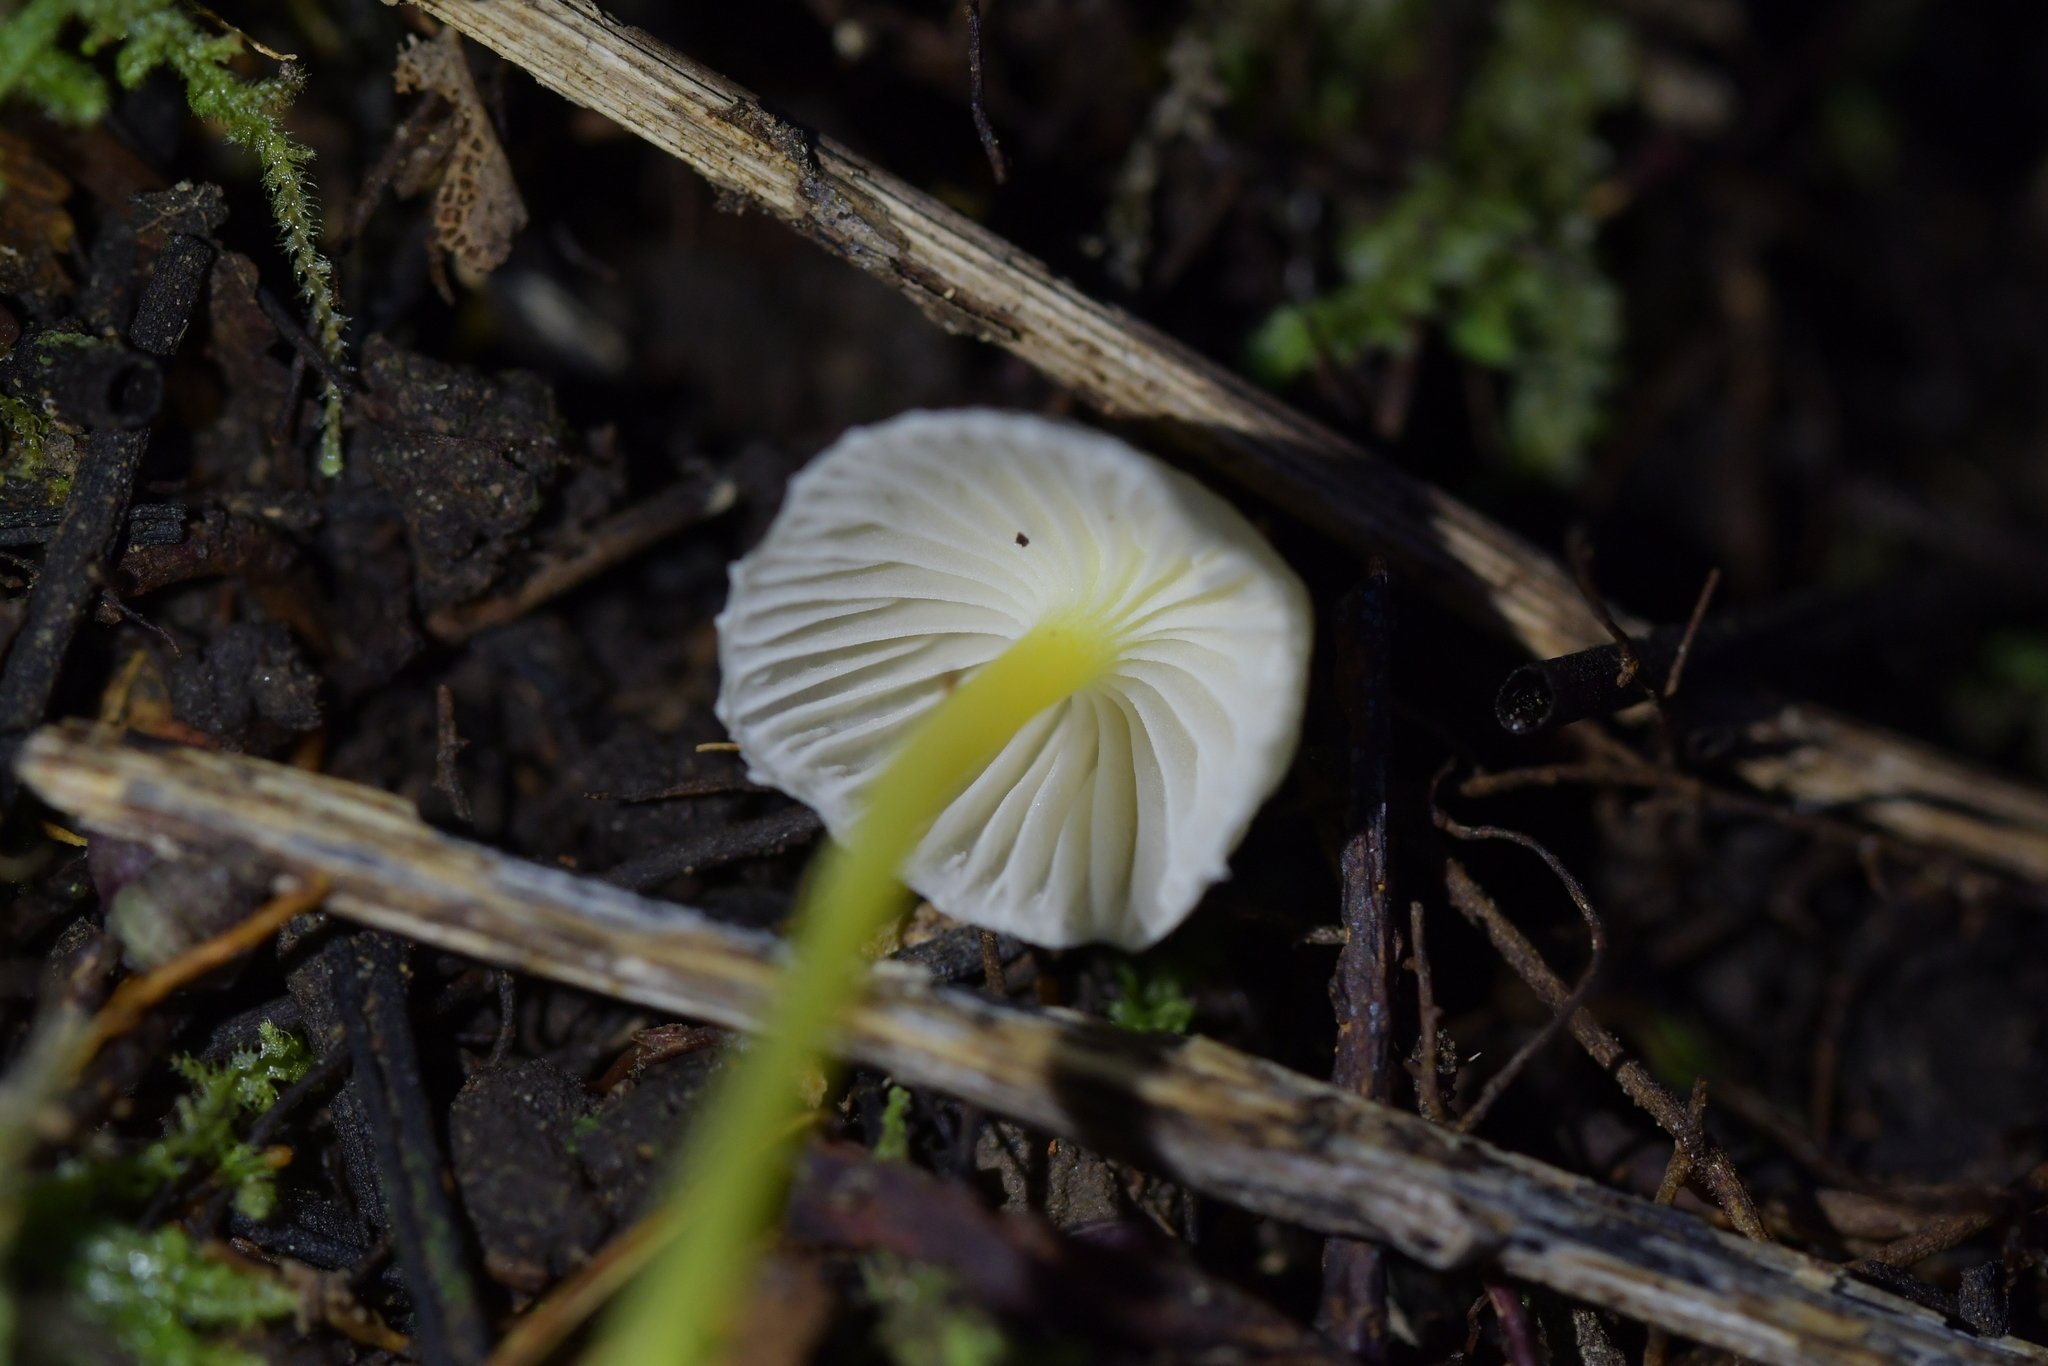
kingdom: Fungi
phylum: Basidiomycota
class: Agaricomycetes
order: Agaricales
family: Mycenaceae
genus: Mycena
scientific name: Mycena subviscosa
